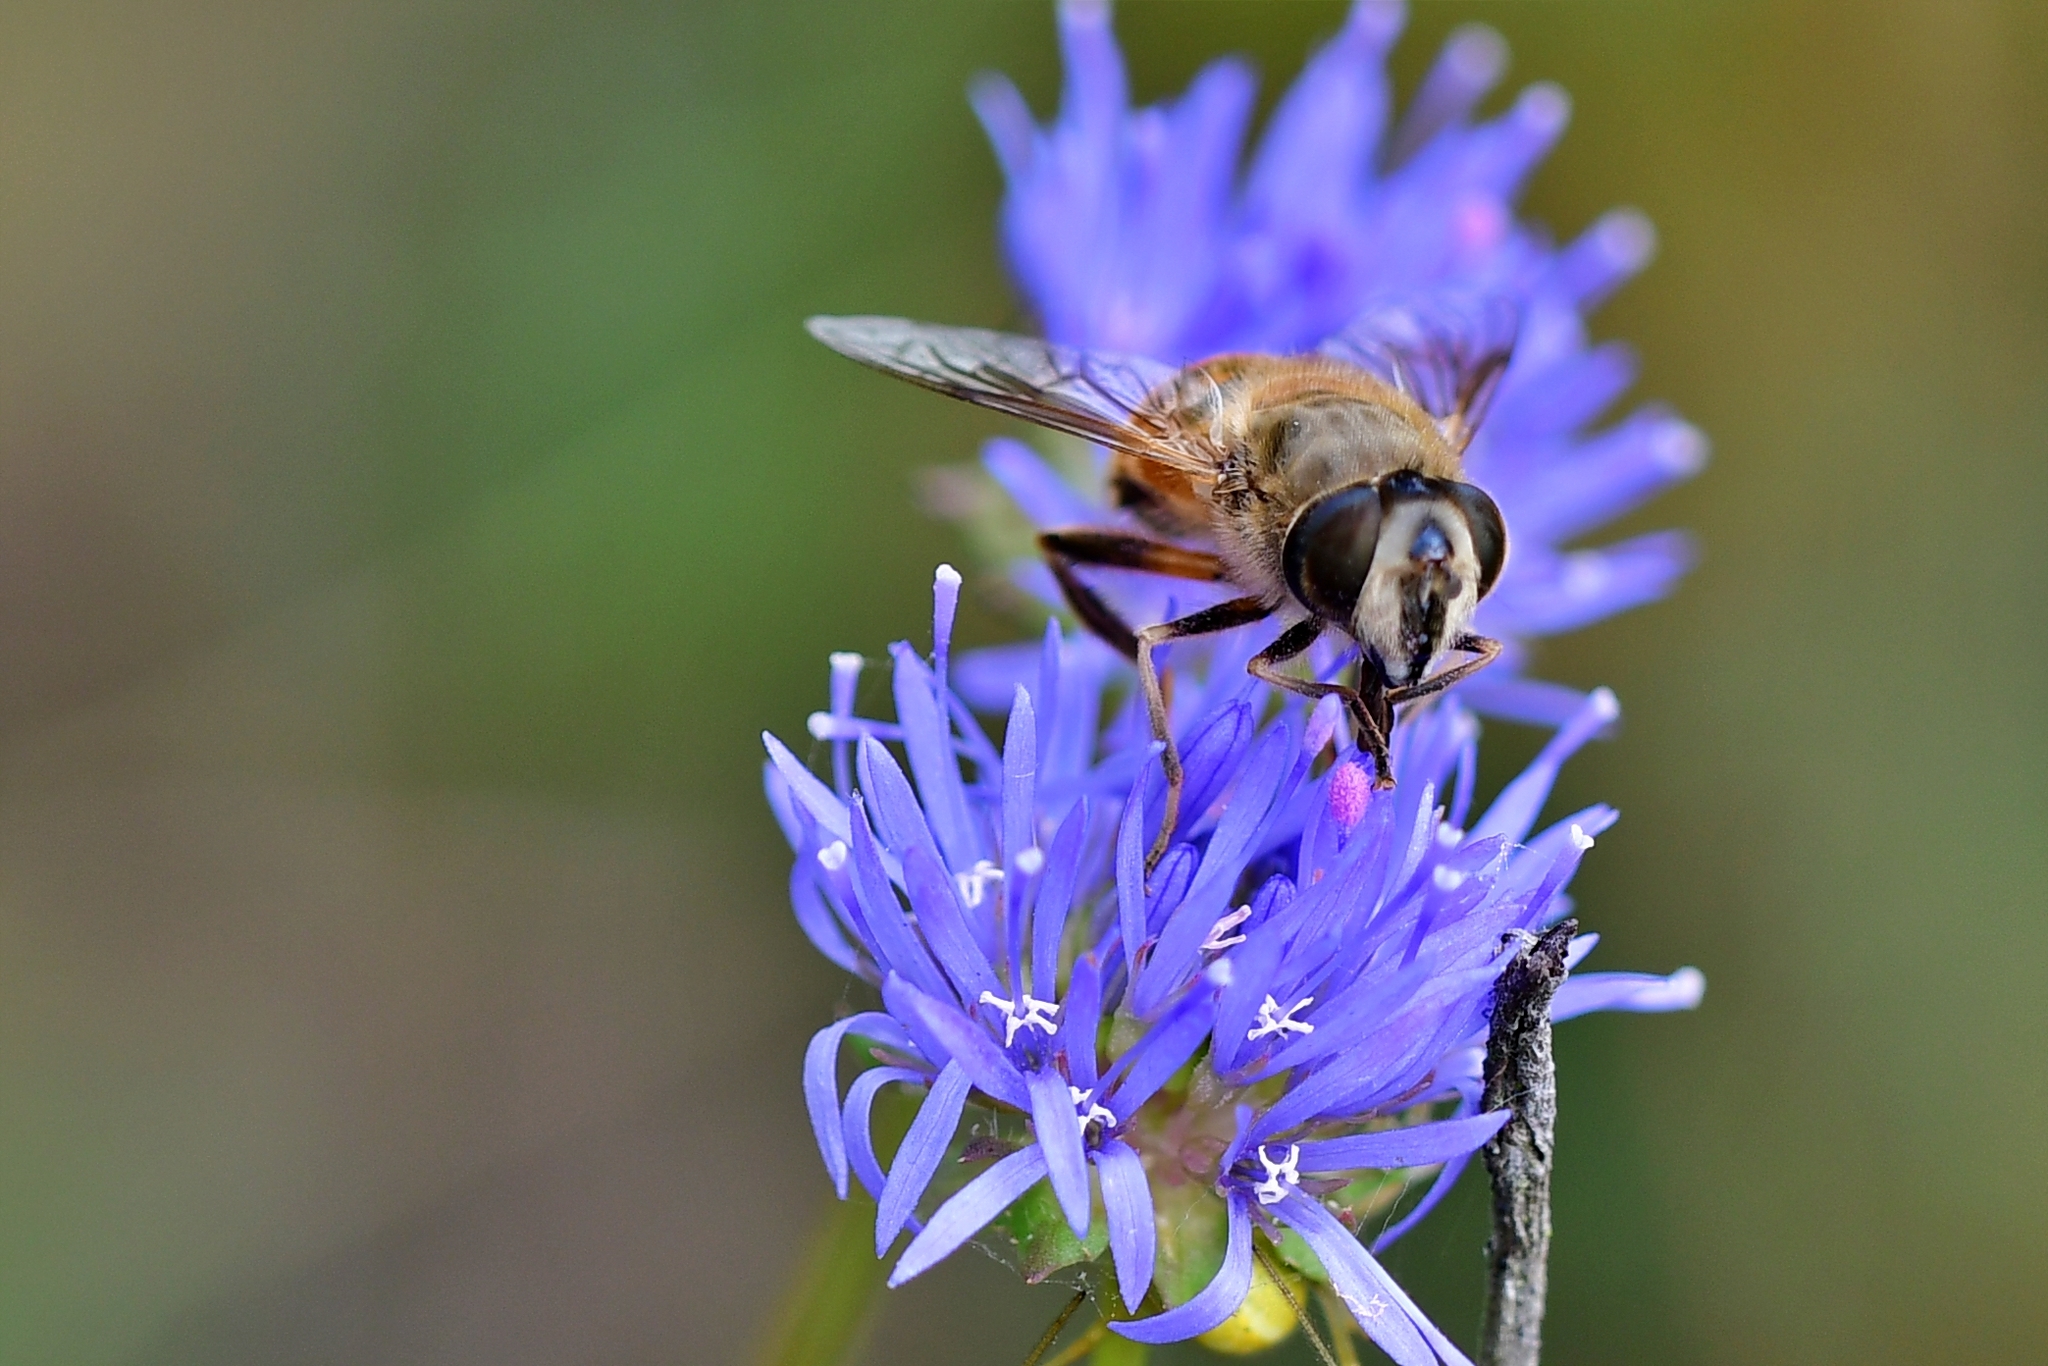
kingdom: Animalia
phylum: Arthropoda
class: Insecta
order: Diptera
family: Syrphidae
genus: Eristalis
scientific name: Eristalis tenax
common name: Drone fly
